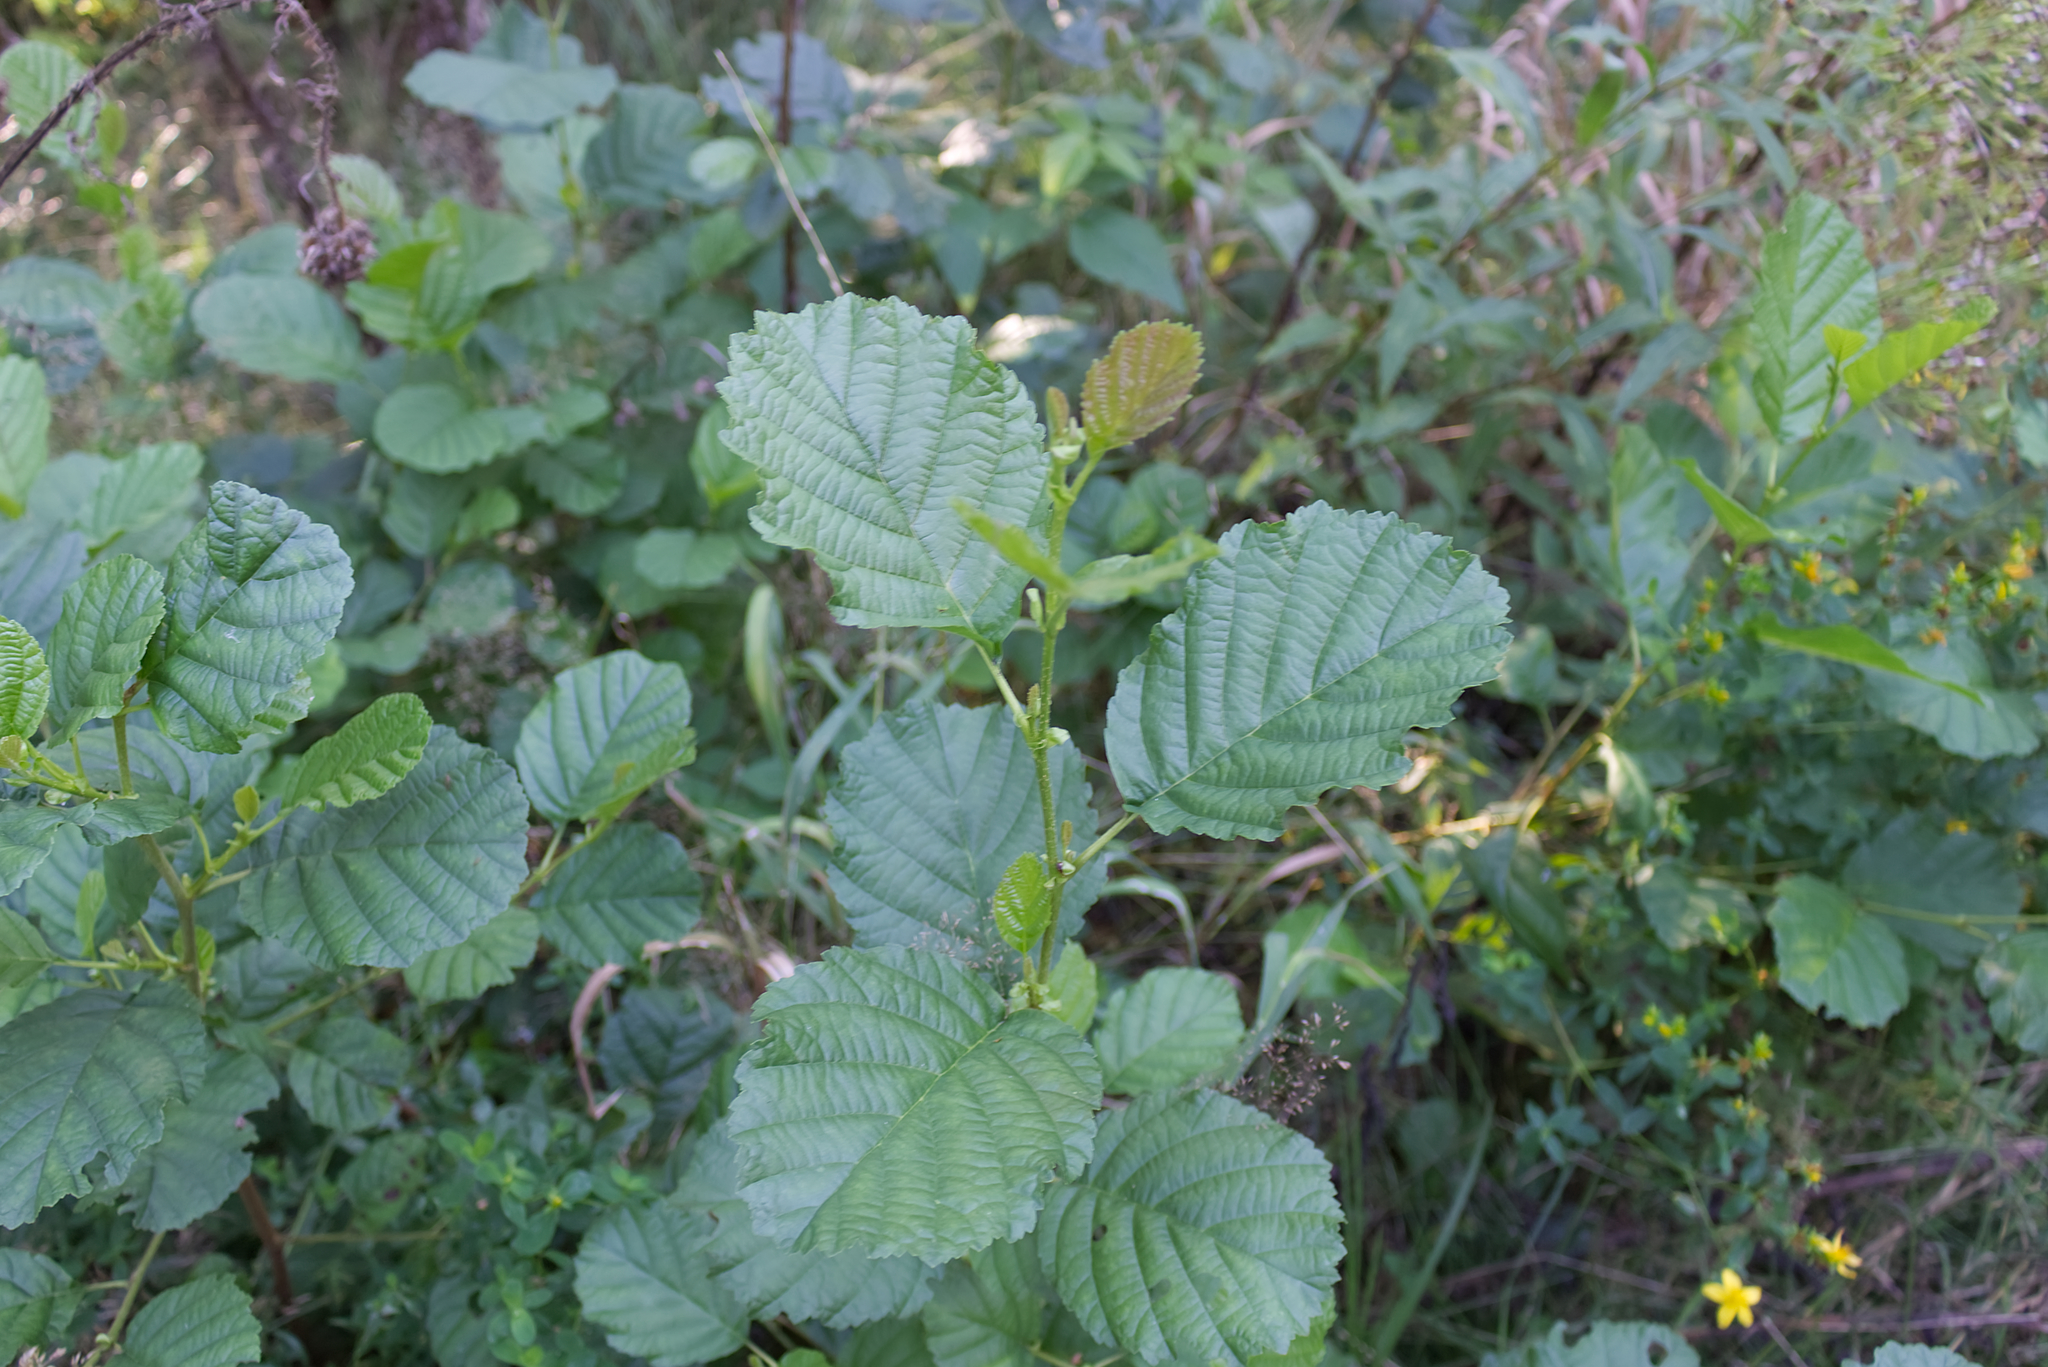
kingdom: Plantae
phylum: Tracheophyta
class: Magnoliopsida
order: Fagales
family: Betulaceae
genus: Alnus
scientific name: Alnus glutinosa
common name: Black alder
